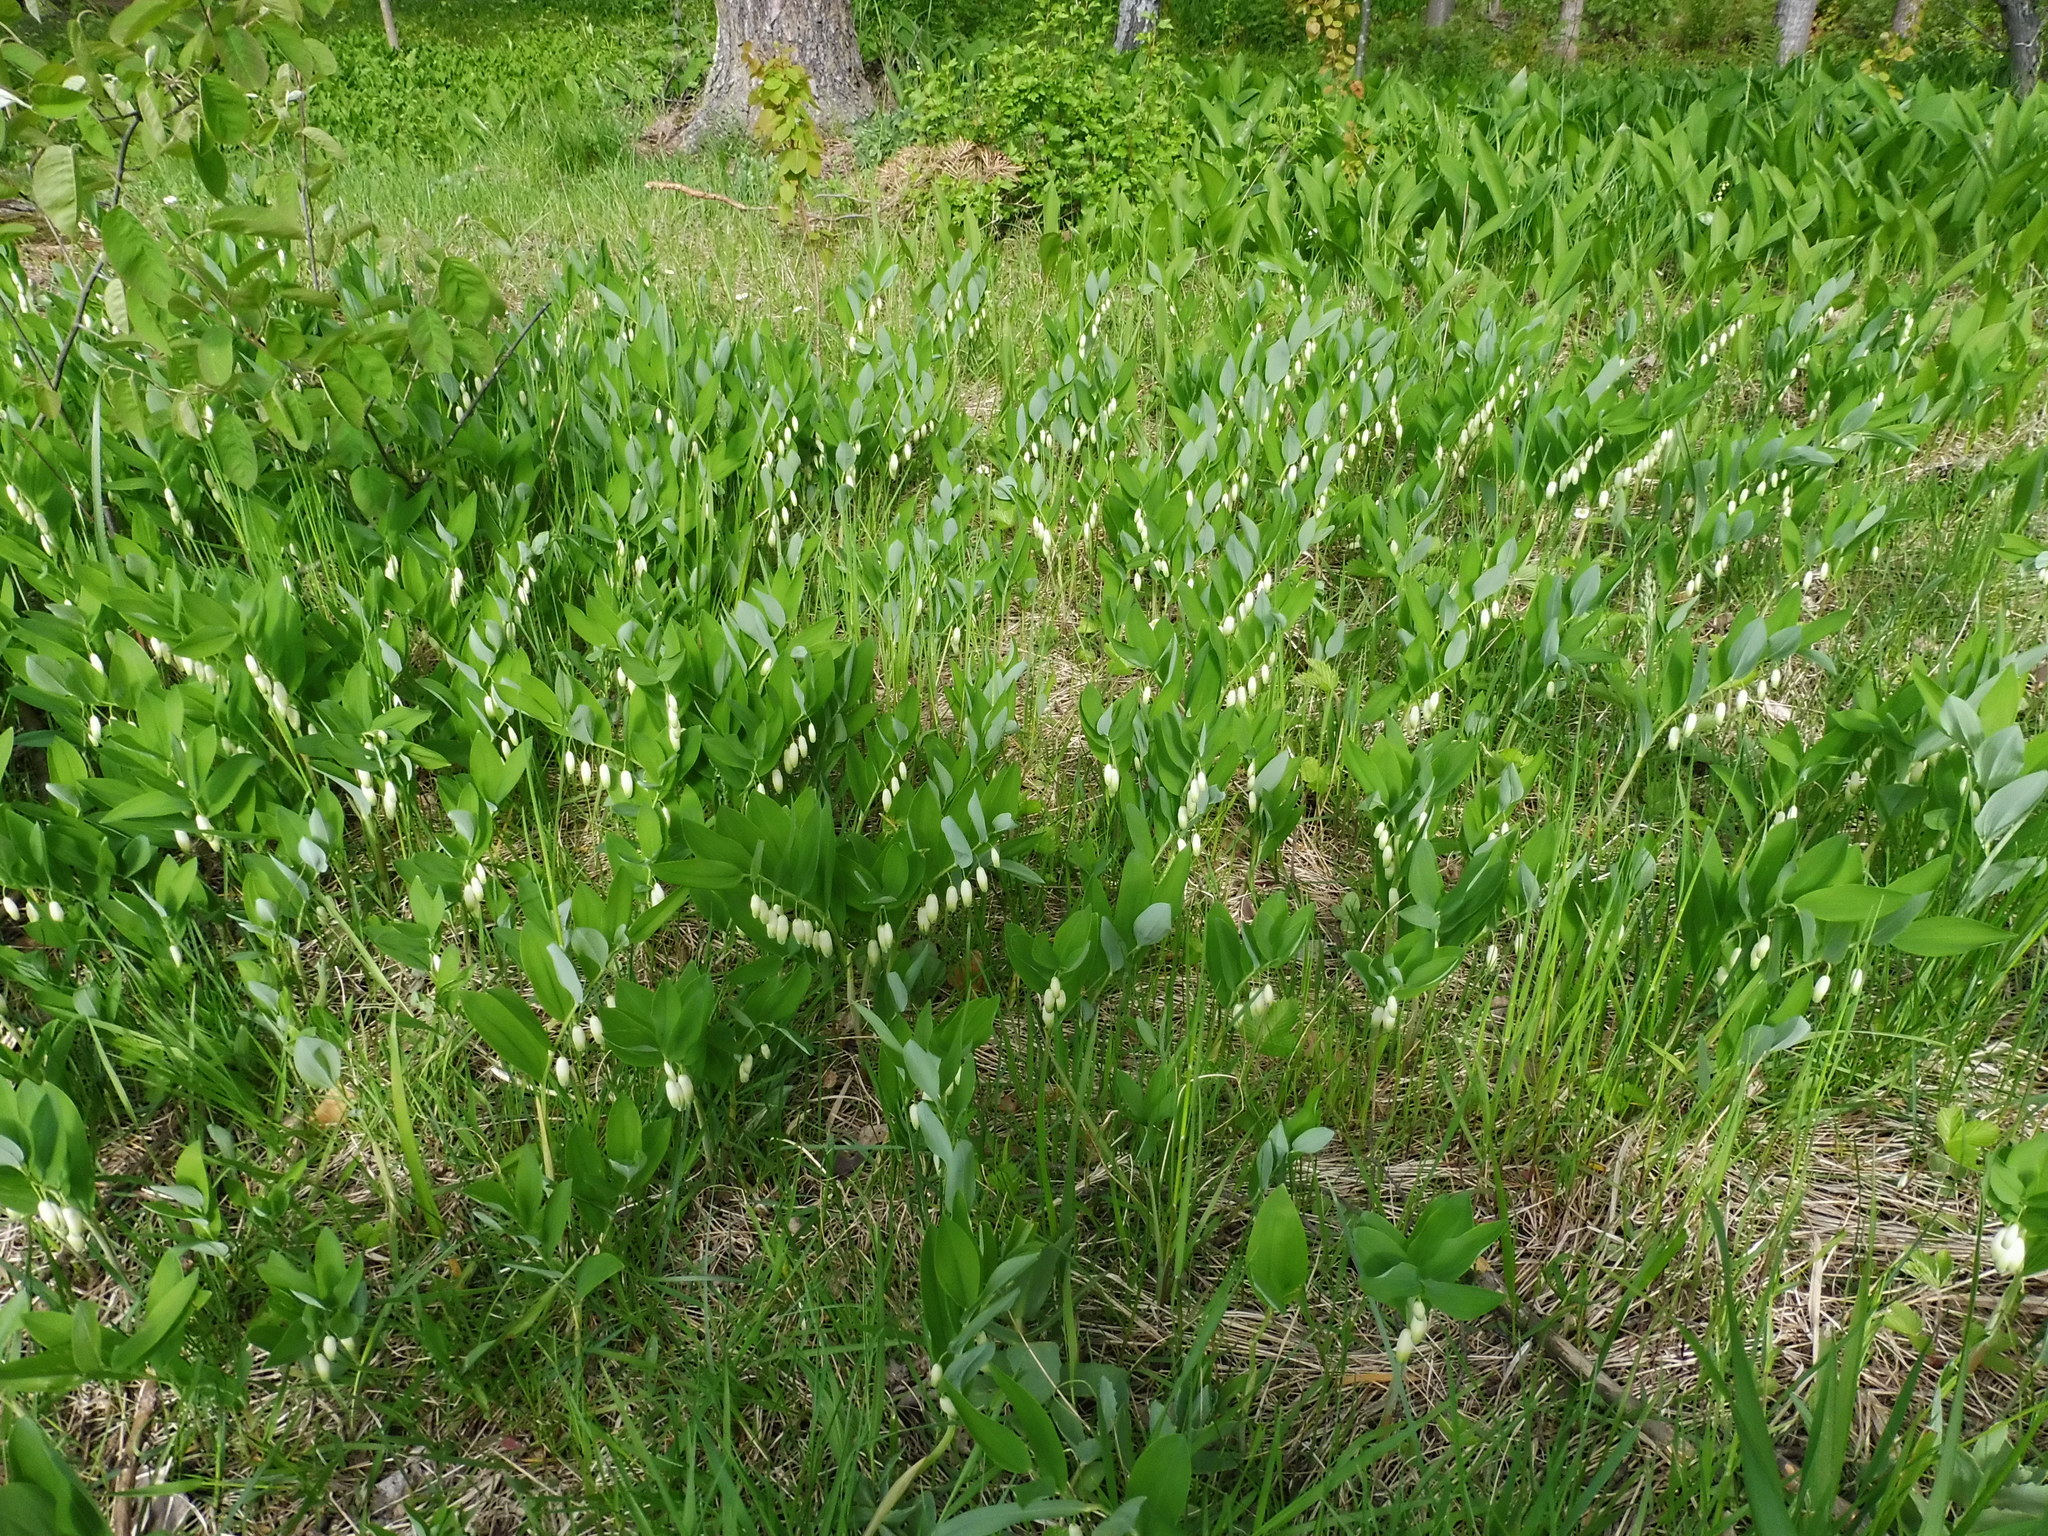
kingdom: Plantae
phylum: Tracheophyta
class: Liliopsida
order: Asparagales
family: Asparagaceae
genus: Polygonatum
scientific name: Polygonatum odoratum
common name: Angular solomon's-seal
